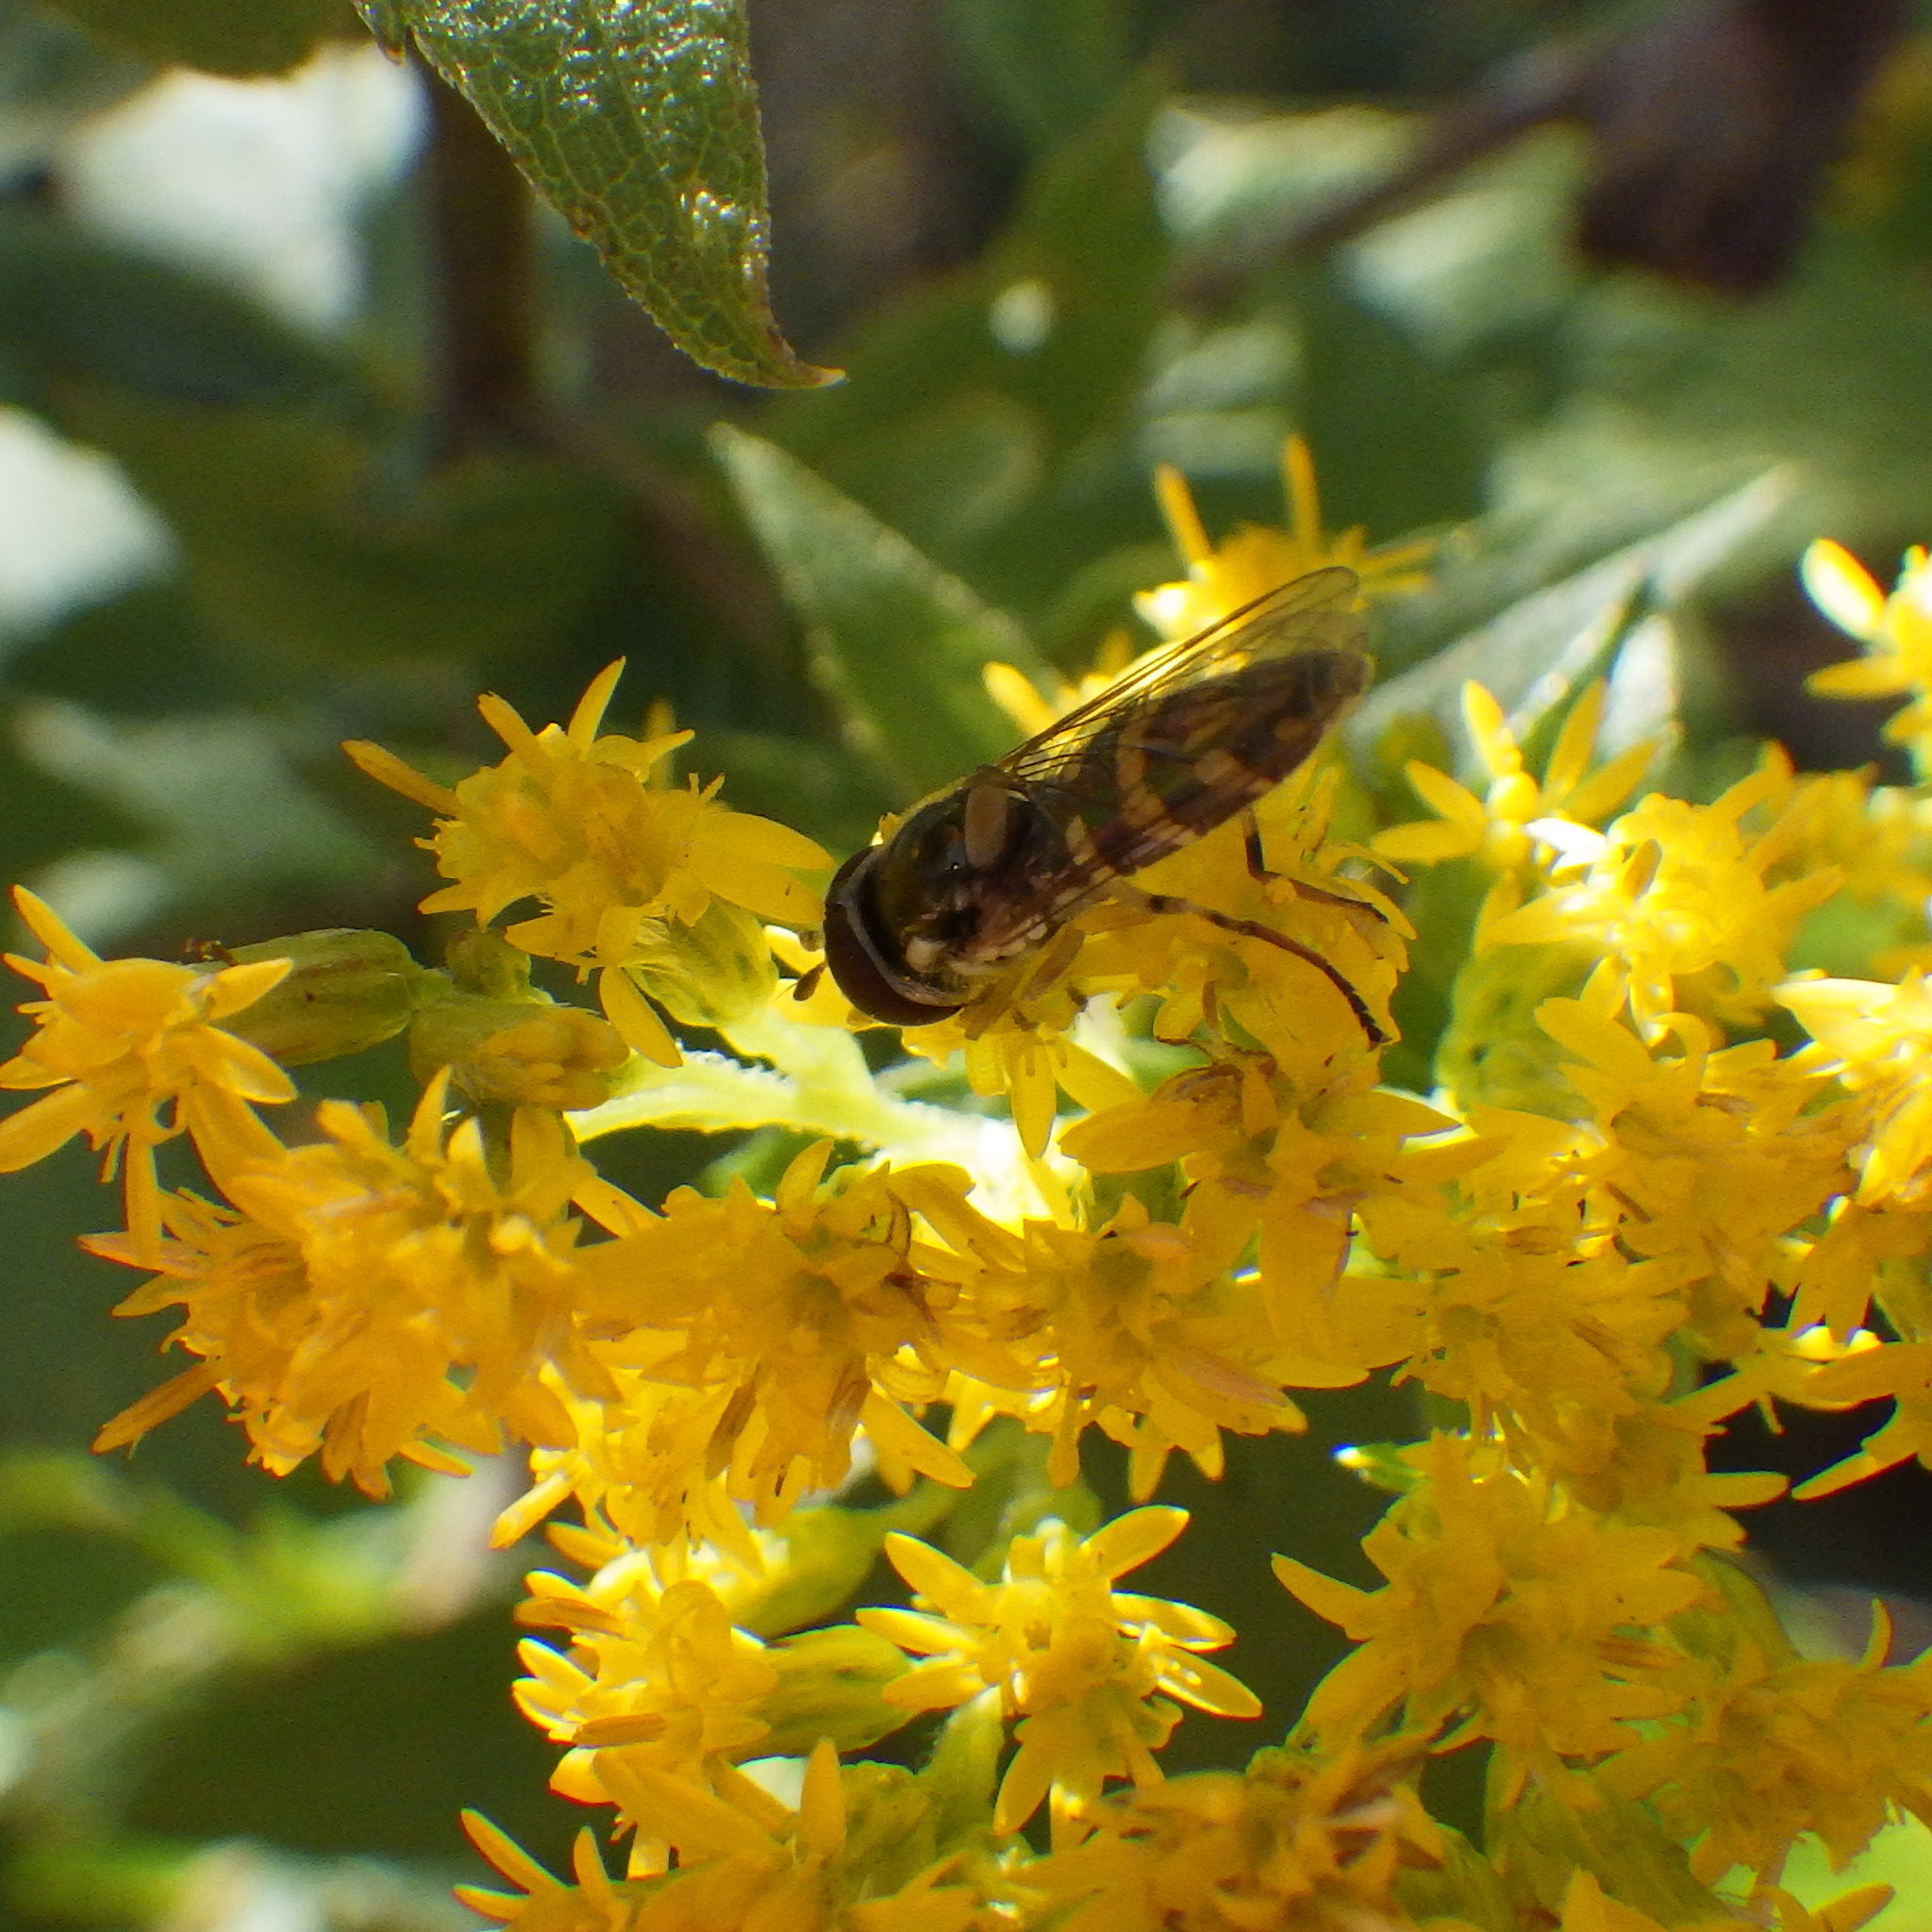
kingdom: Animalia
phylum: Arthropoda
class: Insecta
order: Diptera
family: Syrphidae
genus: Allograpta
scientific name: Allograpta exotica
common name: Syrphid fly
